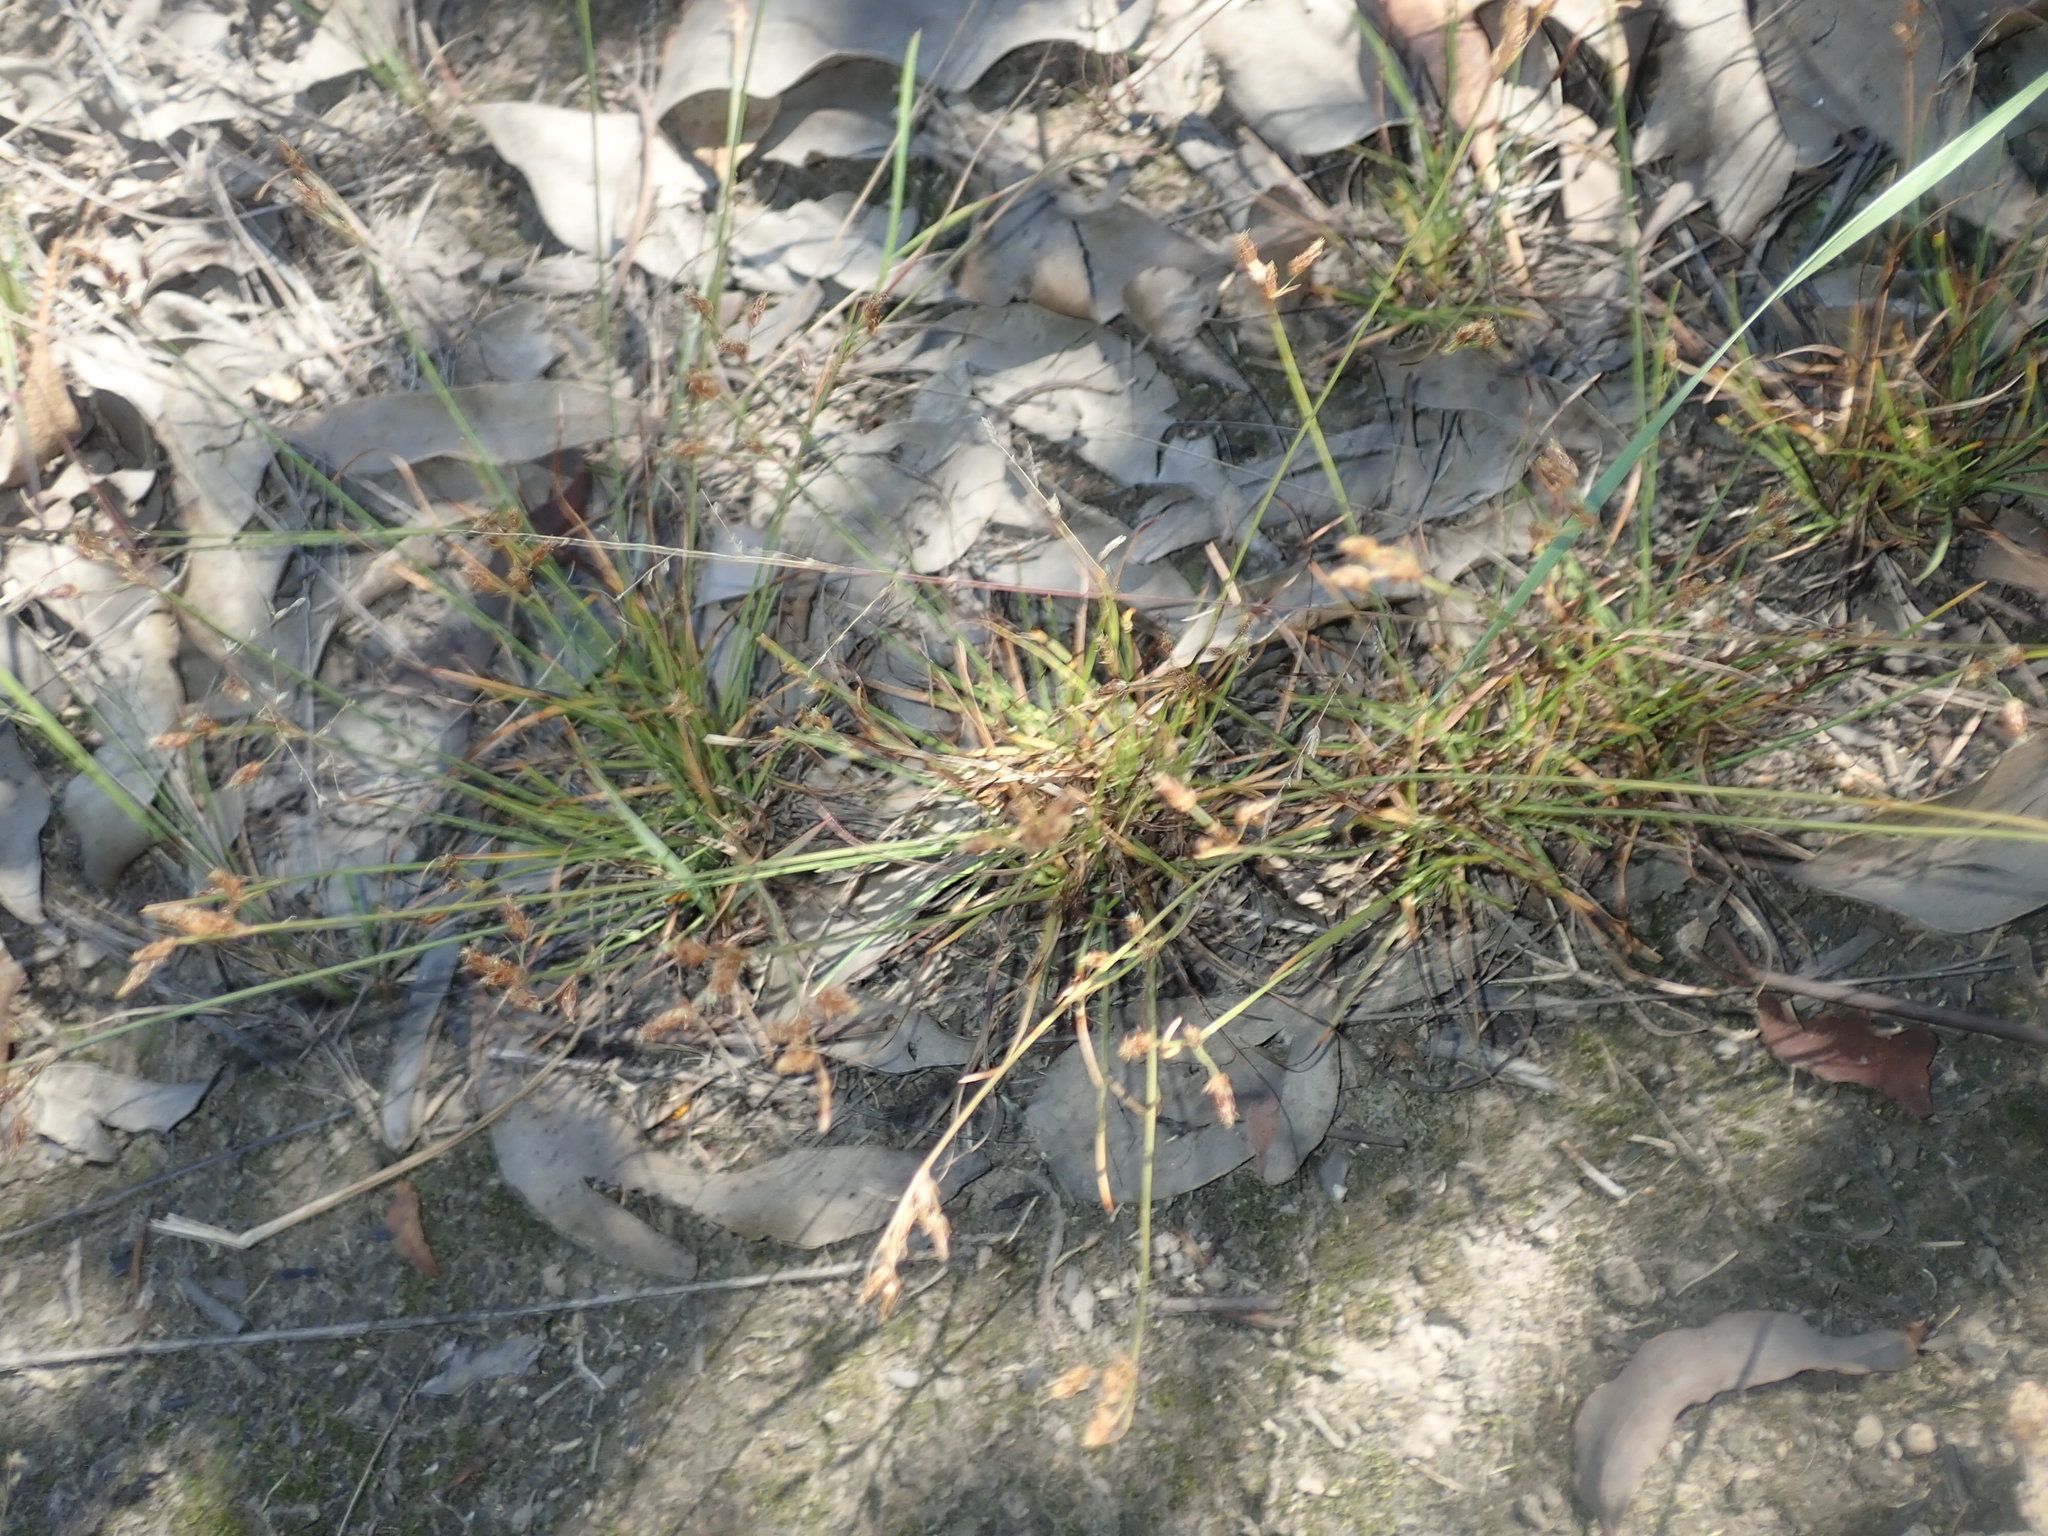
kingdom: Plantae
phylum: Tracheophyta
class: Liliopsida
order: Poales
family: Cyperaceae
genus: Fimbristylis
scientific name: Fimbristylis dichotoma
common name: Forked fimbry
